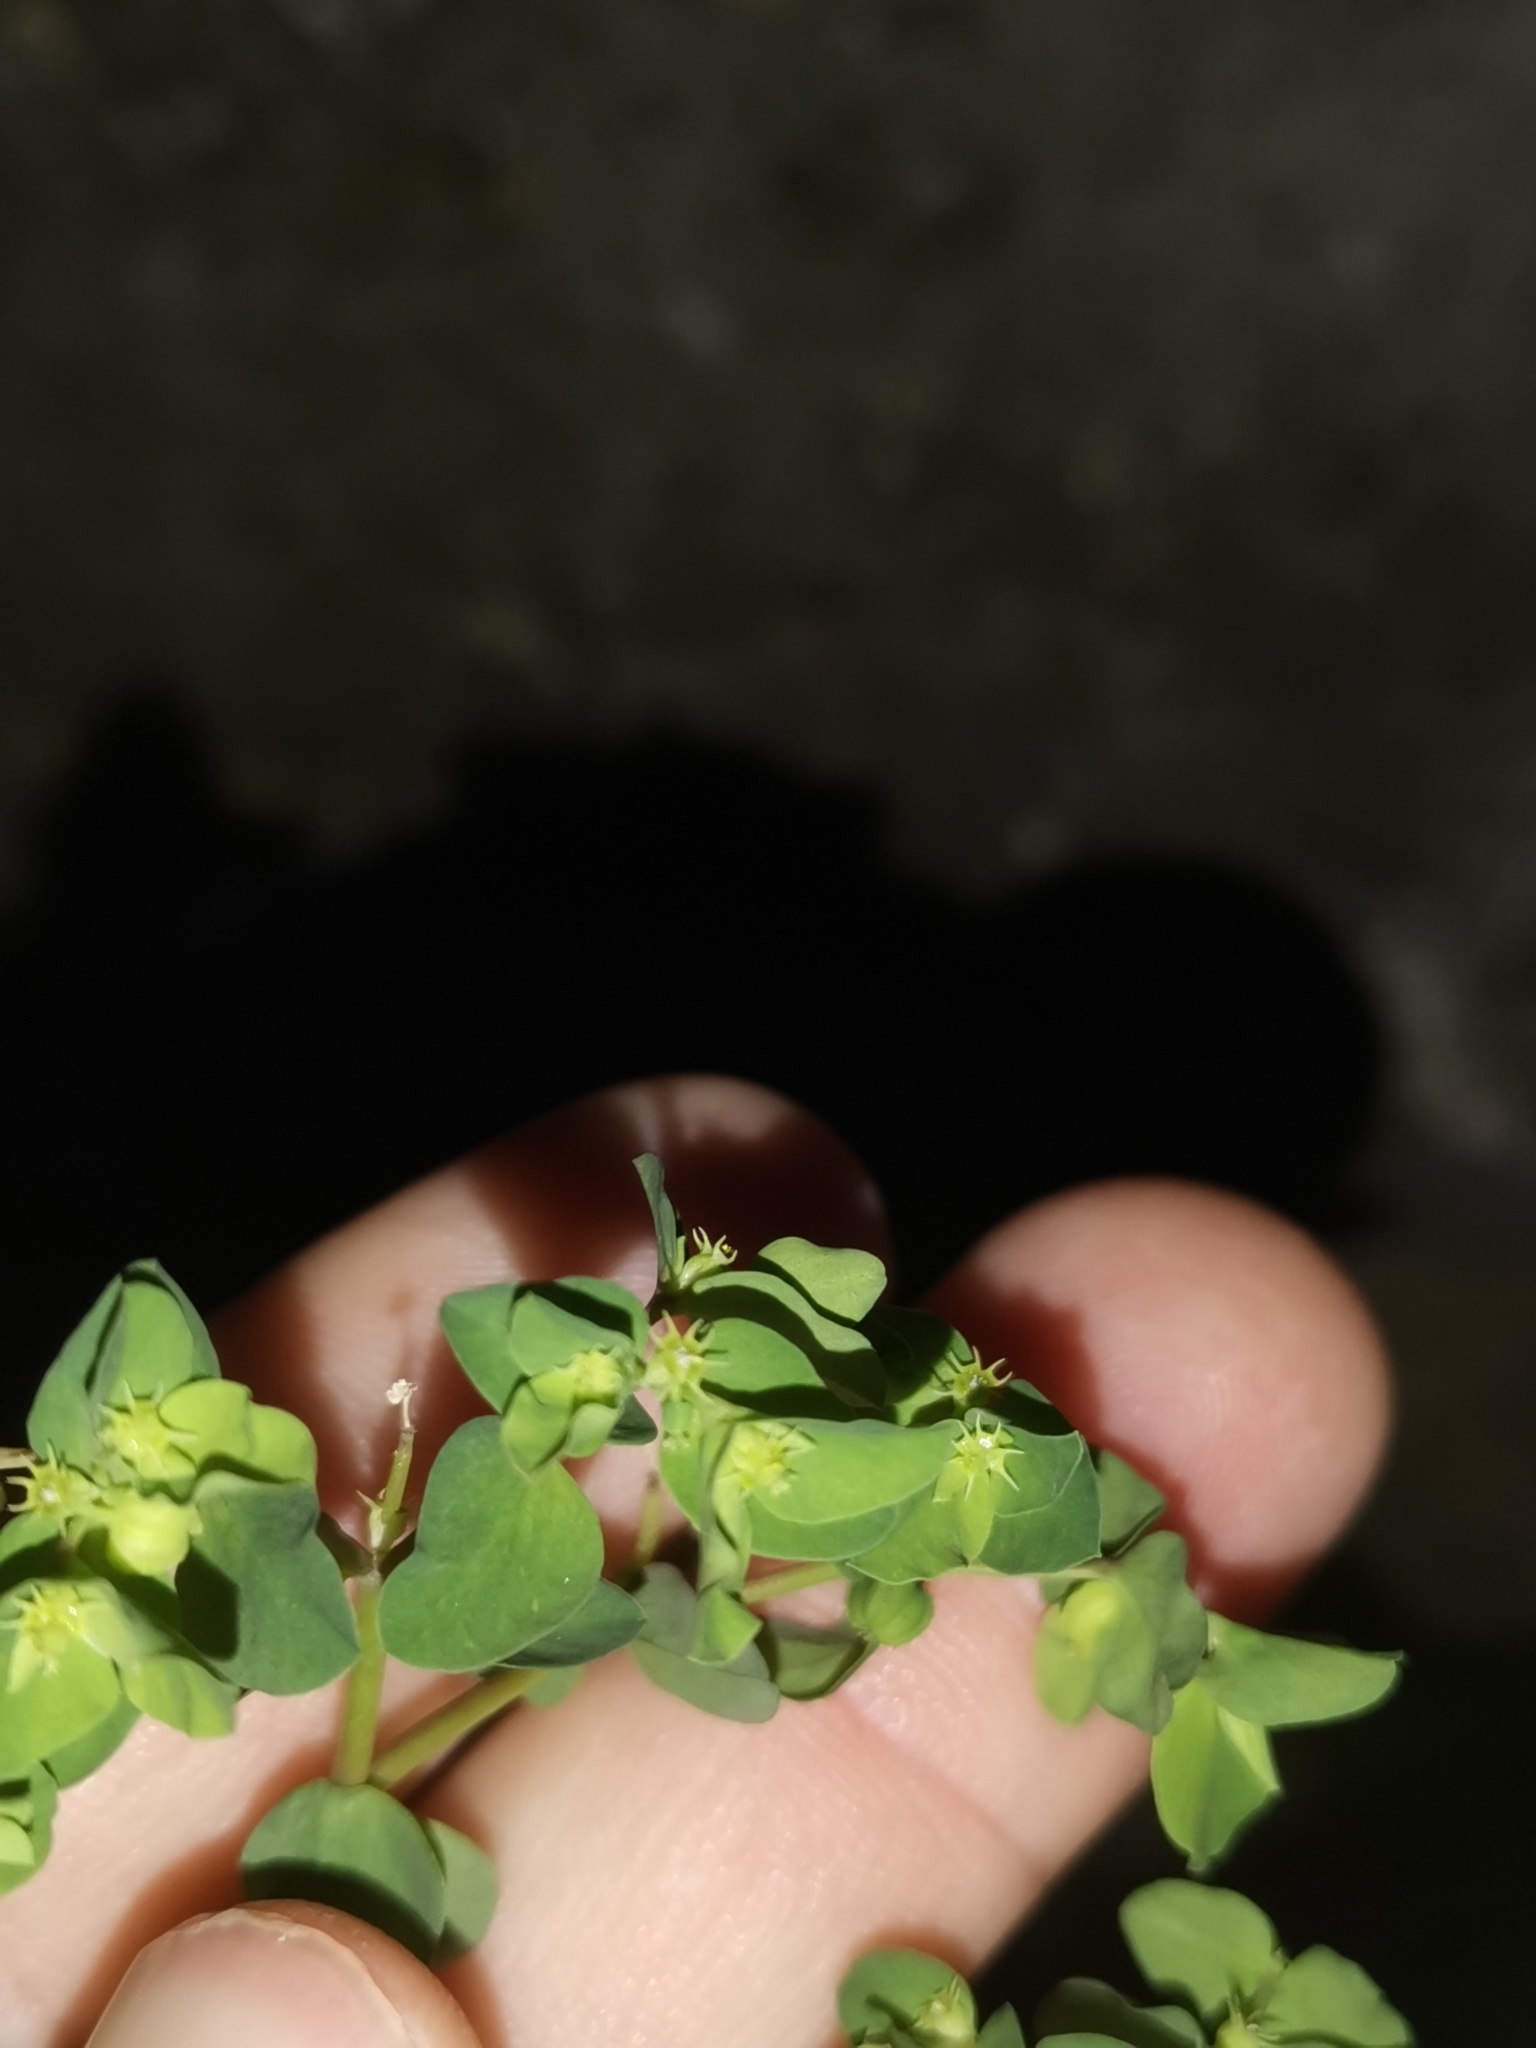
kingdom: Plantae
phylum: Tracheophyta
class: Magnoliopsida
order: Malpighiales
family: Euphorbiaceae
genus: Euphorbia
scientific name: Euphorbia peplus
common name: Petty spurge
